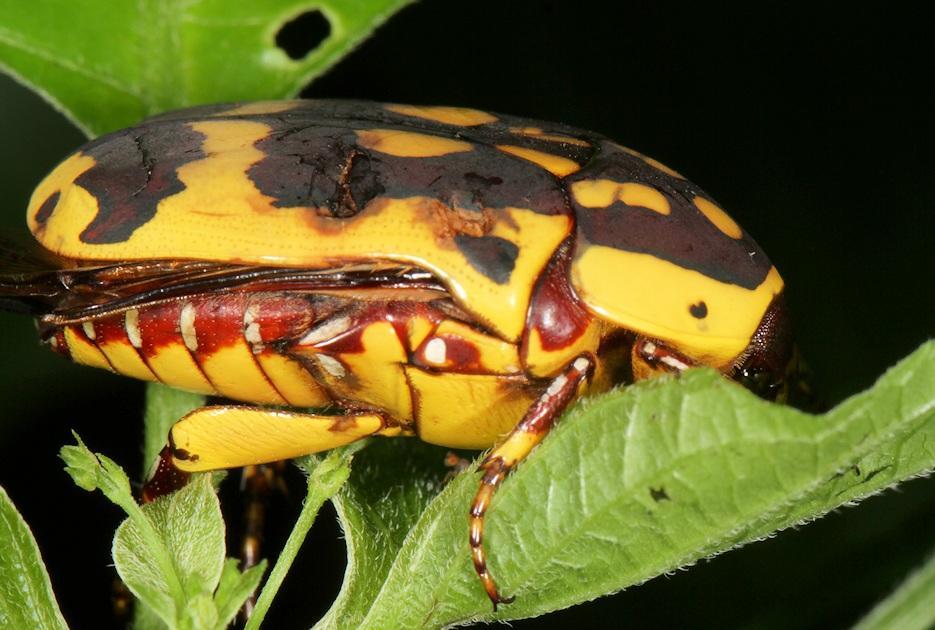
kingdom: Animalia
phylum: Arthropoda
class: Insecta
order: Coleoptera
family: Scarabaeidae
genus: Pachnoda
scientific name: Pachnoda sinuata
